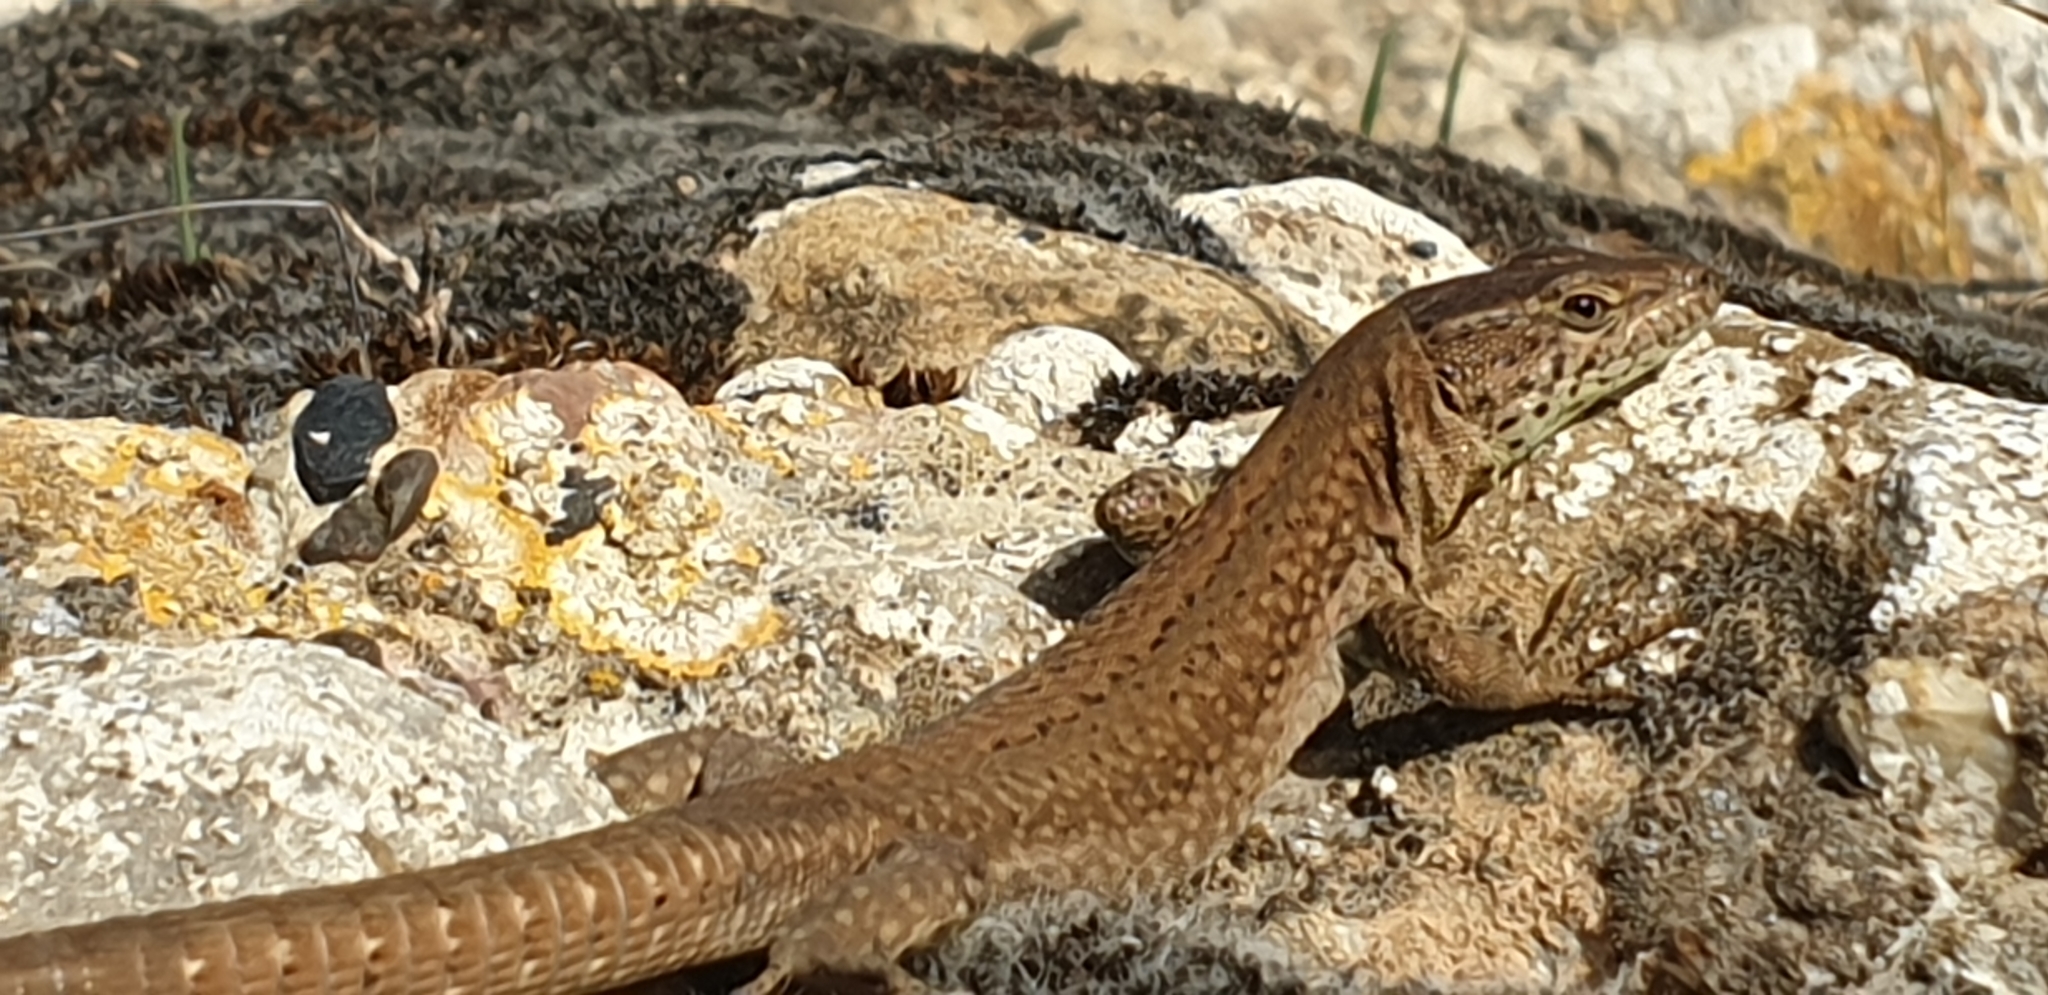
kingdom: Animalia
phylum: Chordata
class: Squamata
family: Lacertidae
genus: Podarcis
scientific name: Podarcis liolepis
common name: Catalonian wall lizard
